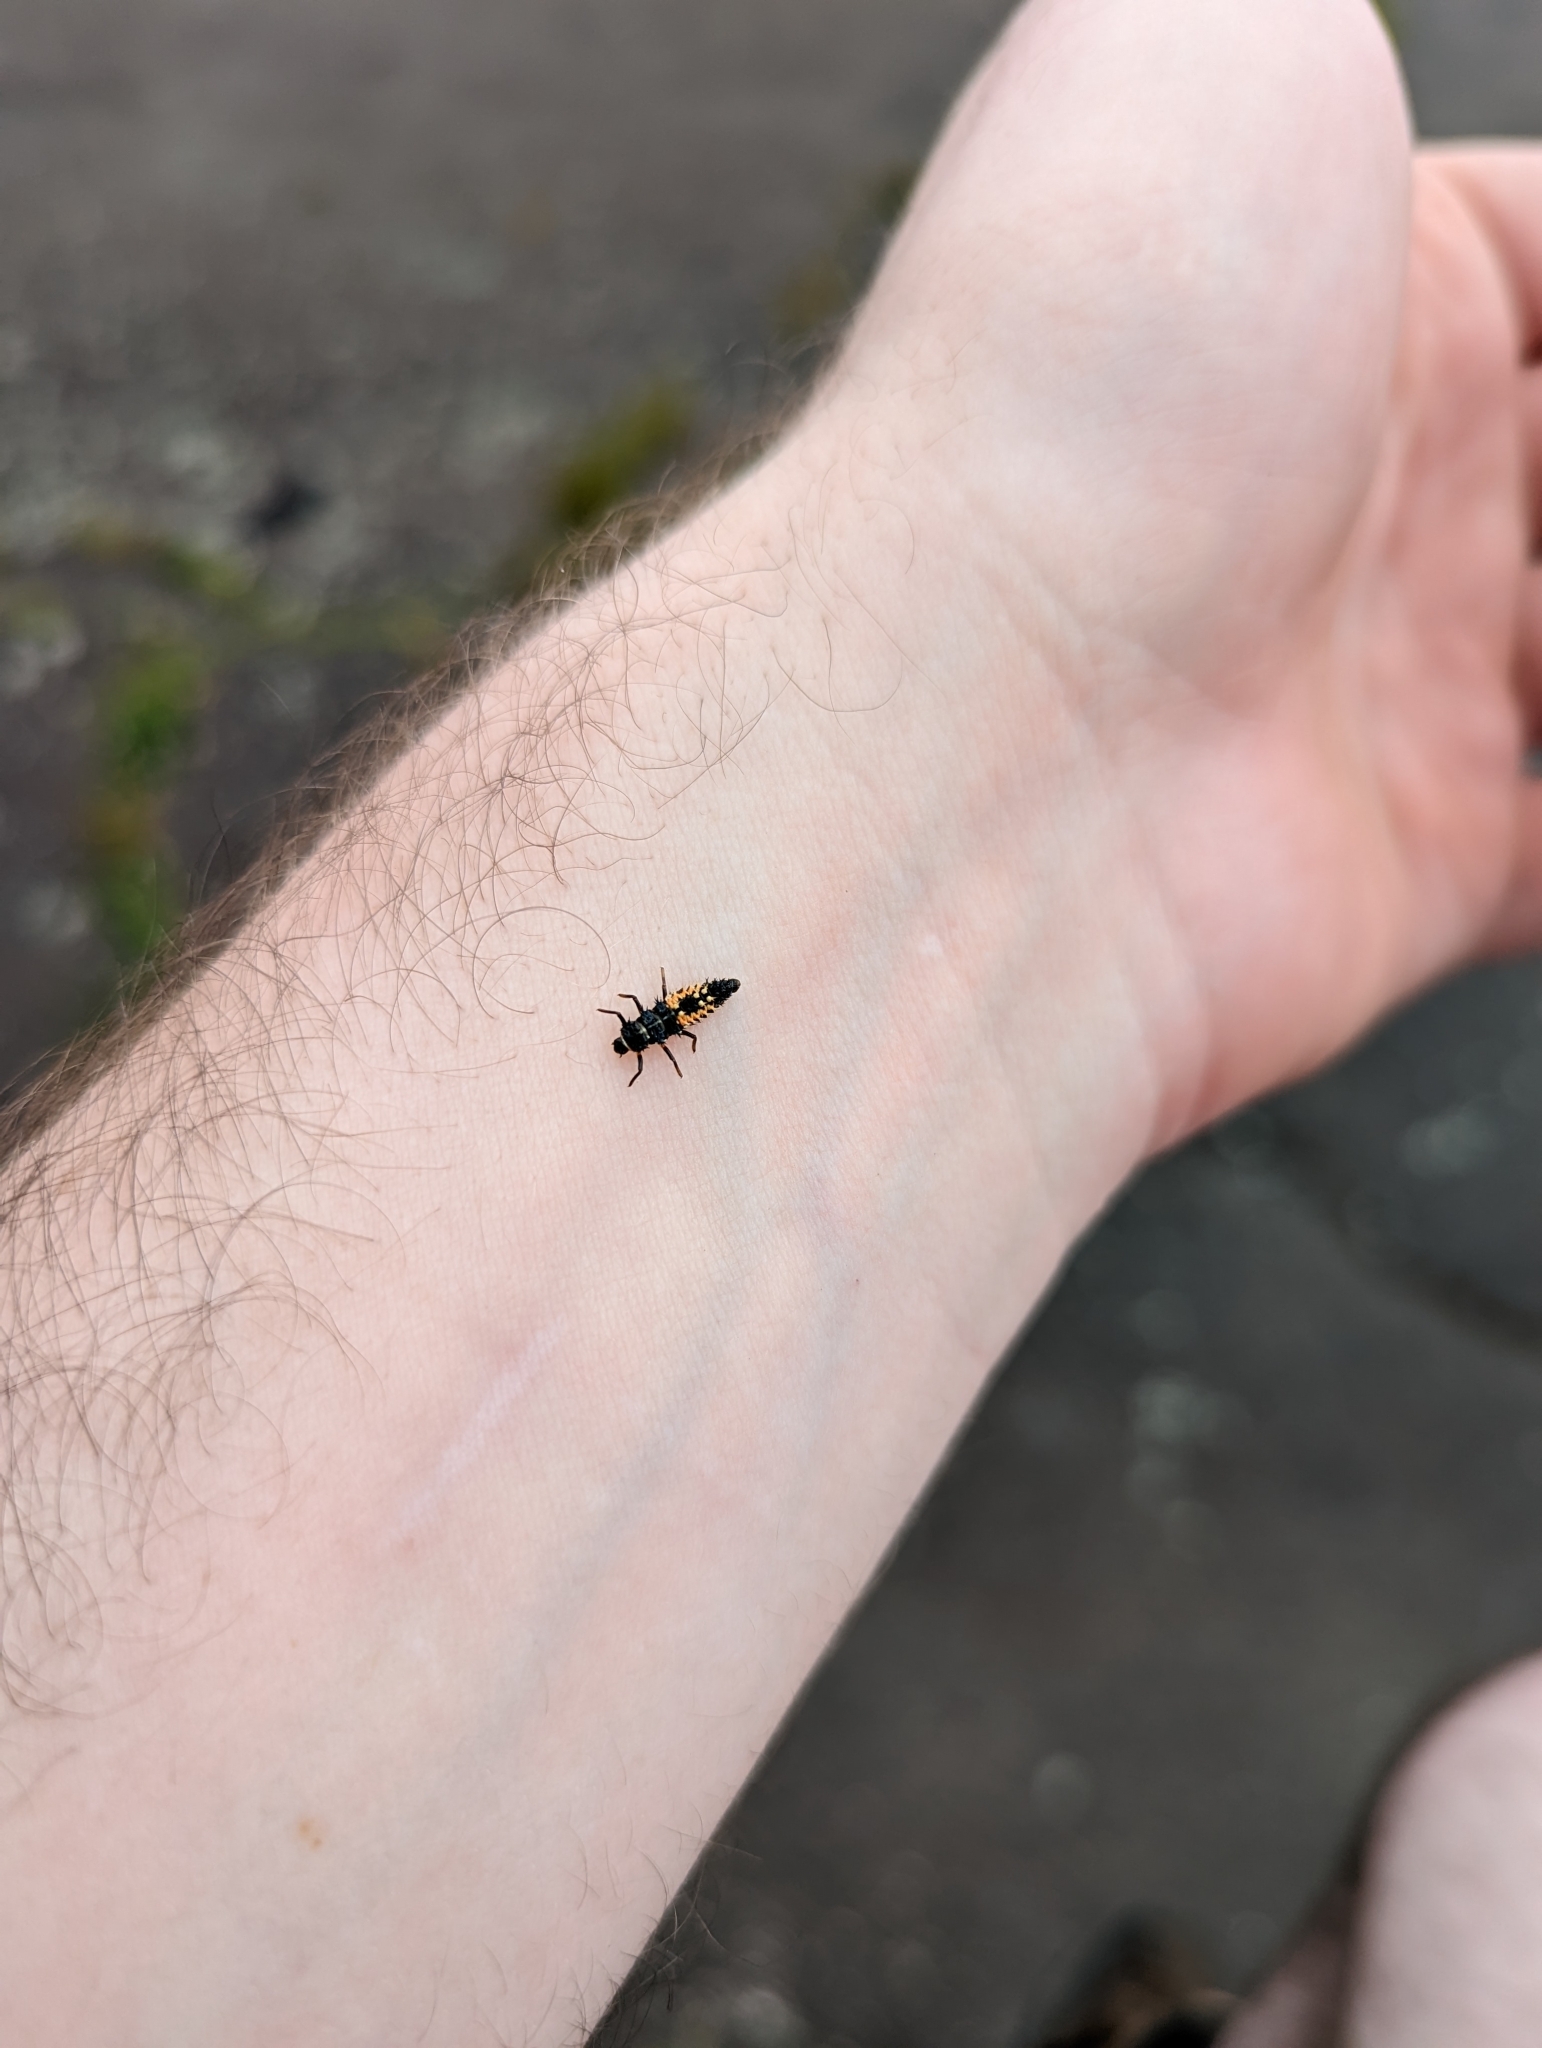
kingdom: Animalia
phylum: Arthropoda
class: Insecta
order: Coleoptera
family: Coccinellidae
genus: Harmonia
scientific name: Harmonia axyridis
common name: Harlequin ladybird
